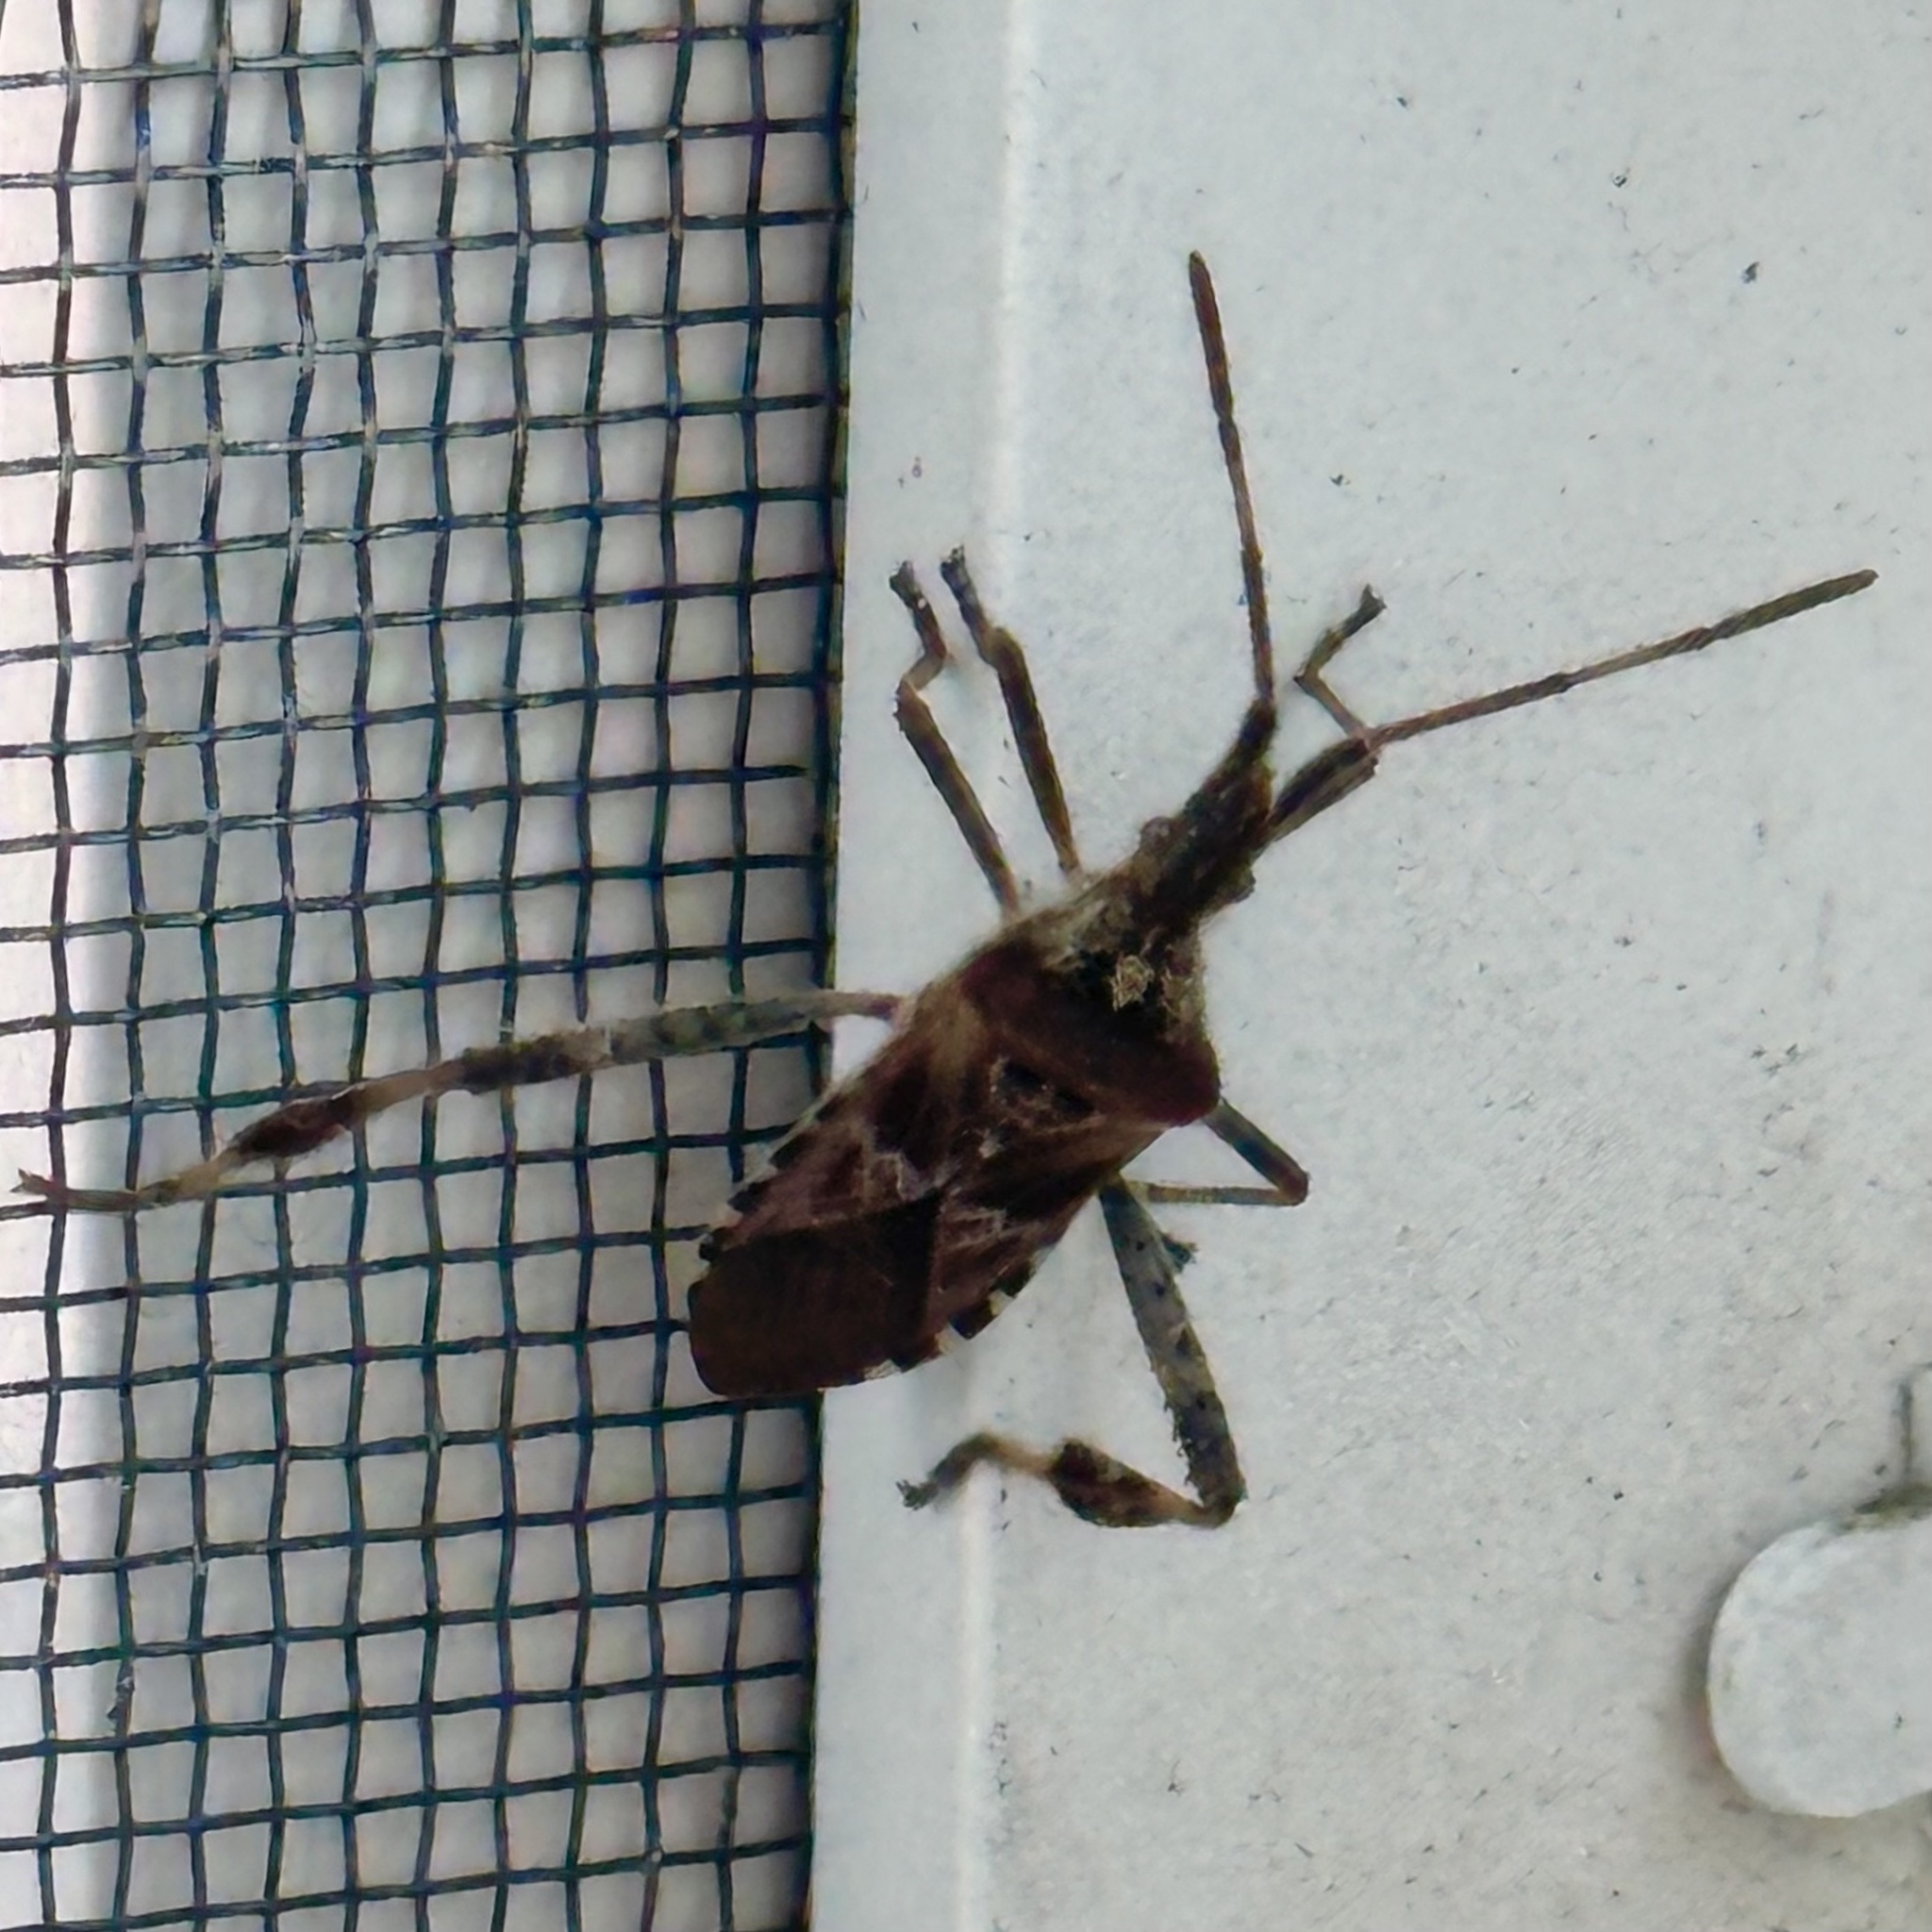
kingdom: Animalia
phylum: Arthropoda
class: Insecta
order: Hemiptera
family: Coreidae
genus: Leptoglossus
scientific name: Leptoglossus occidentalis
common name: Western conifer-seed bug
